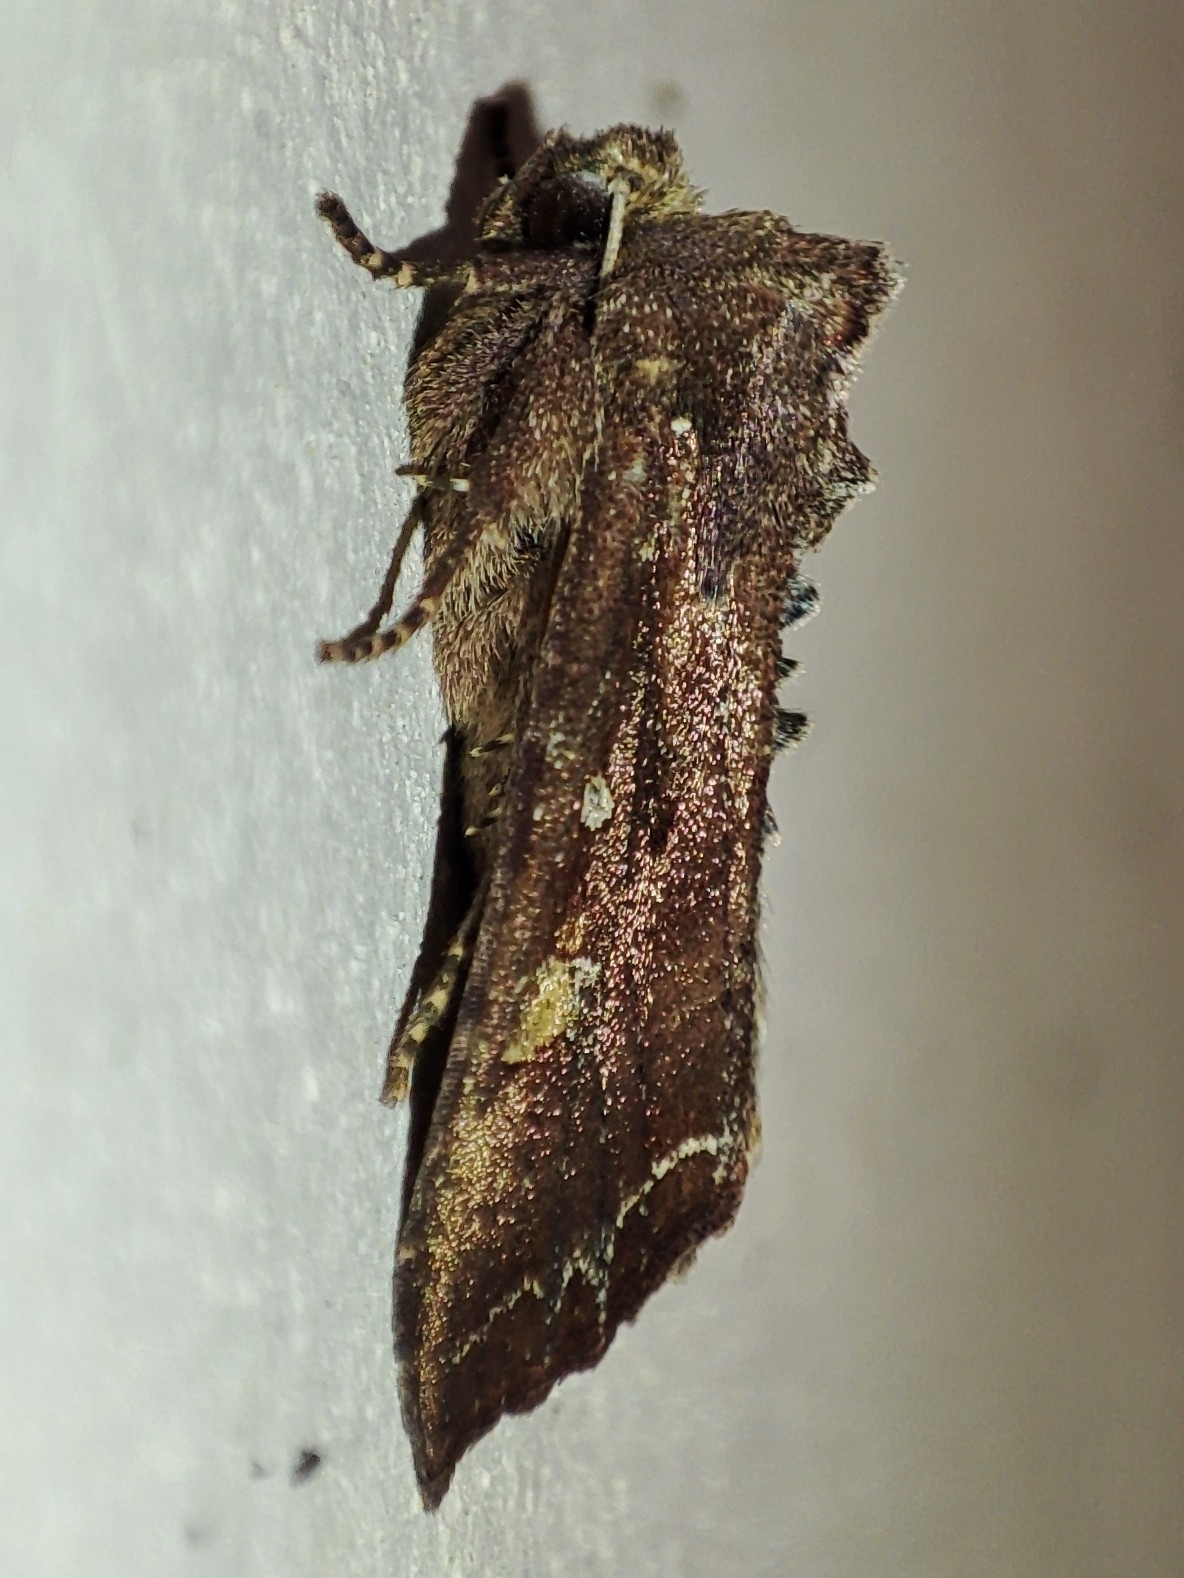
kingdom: Animalia
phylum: Arthropoda
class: Insecta
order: Lepidoptera
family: Noctuidae
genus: Lacanobia
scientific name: Lacanobia oleracea
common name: Bright-line brown-eye
